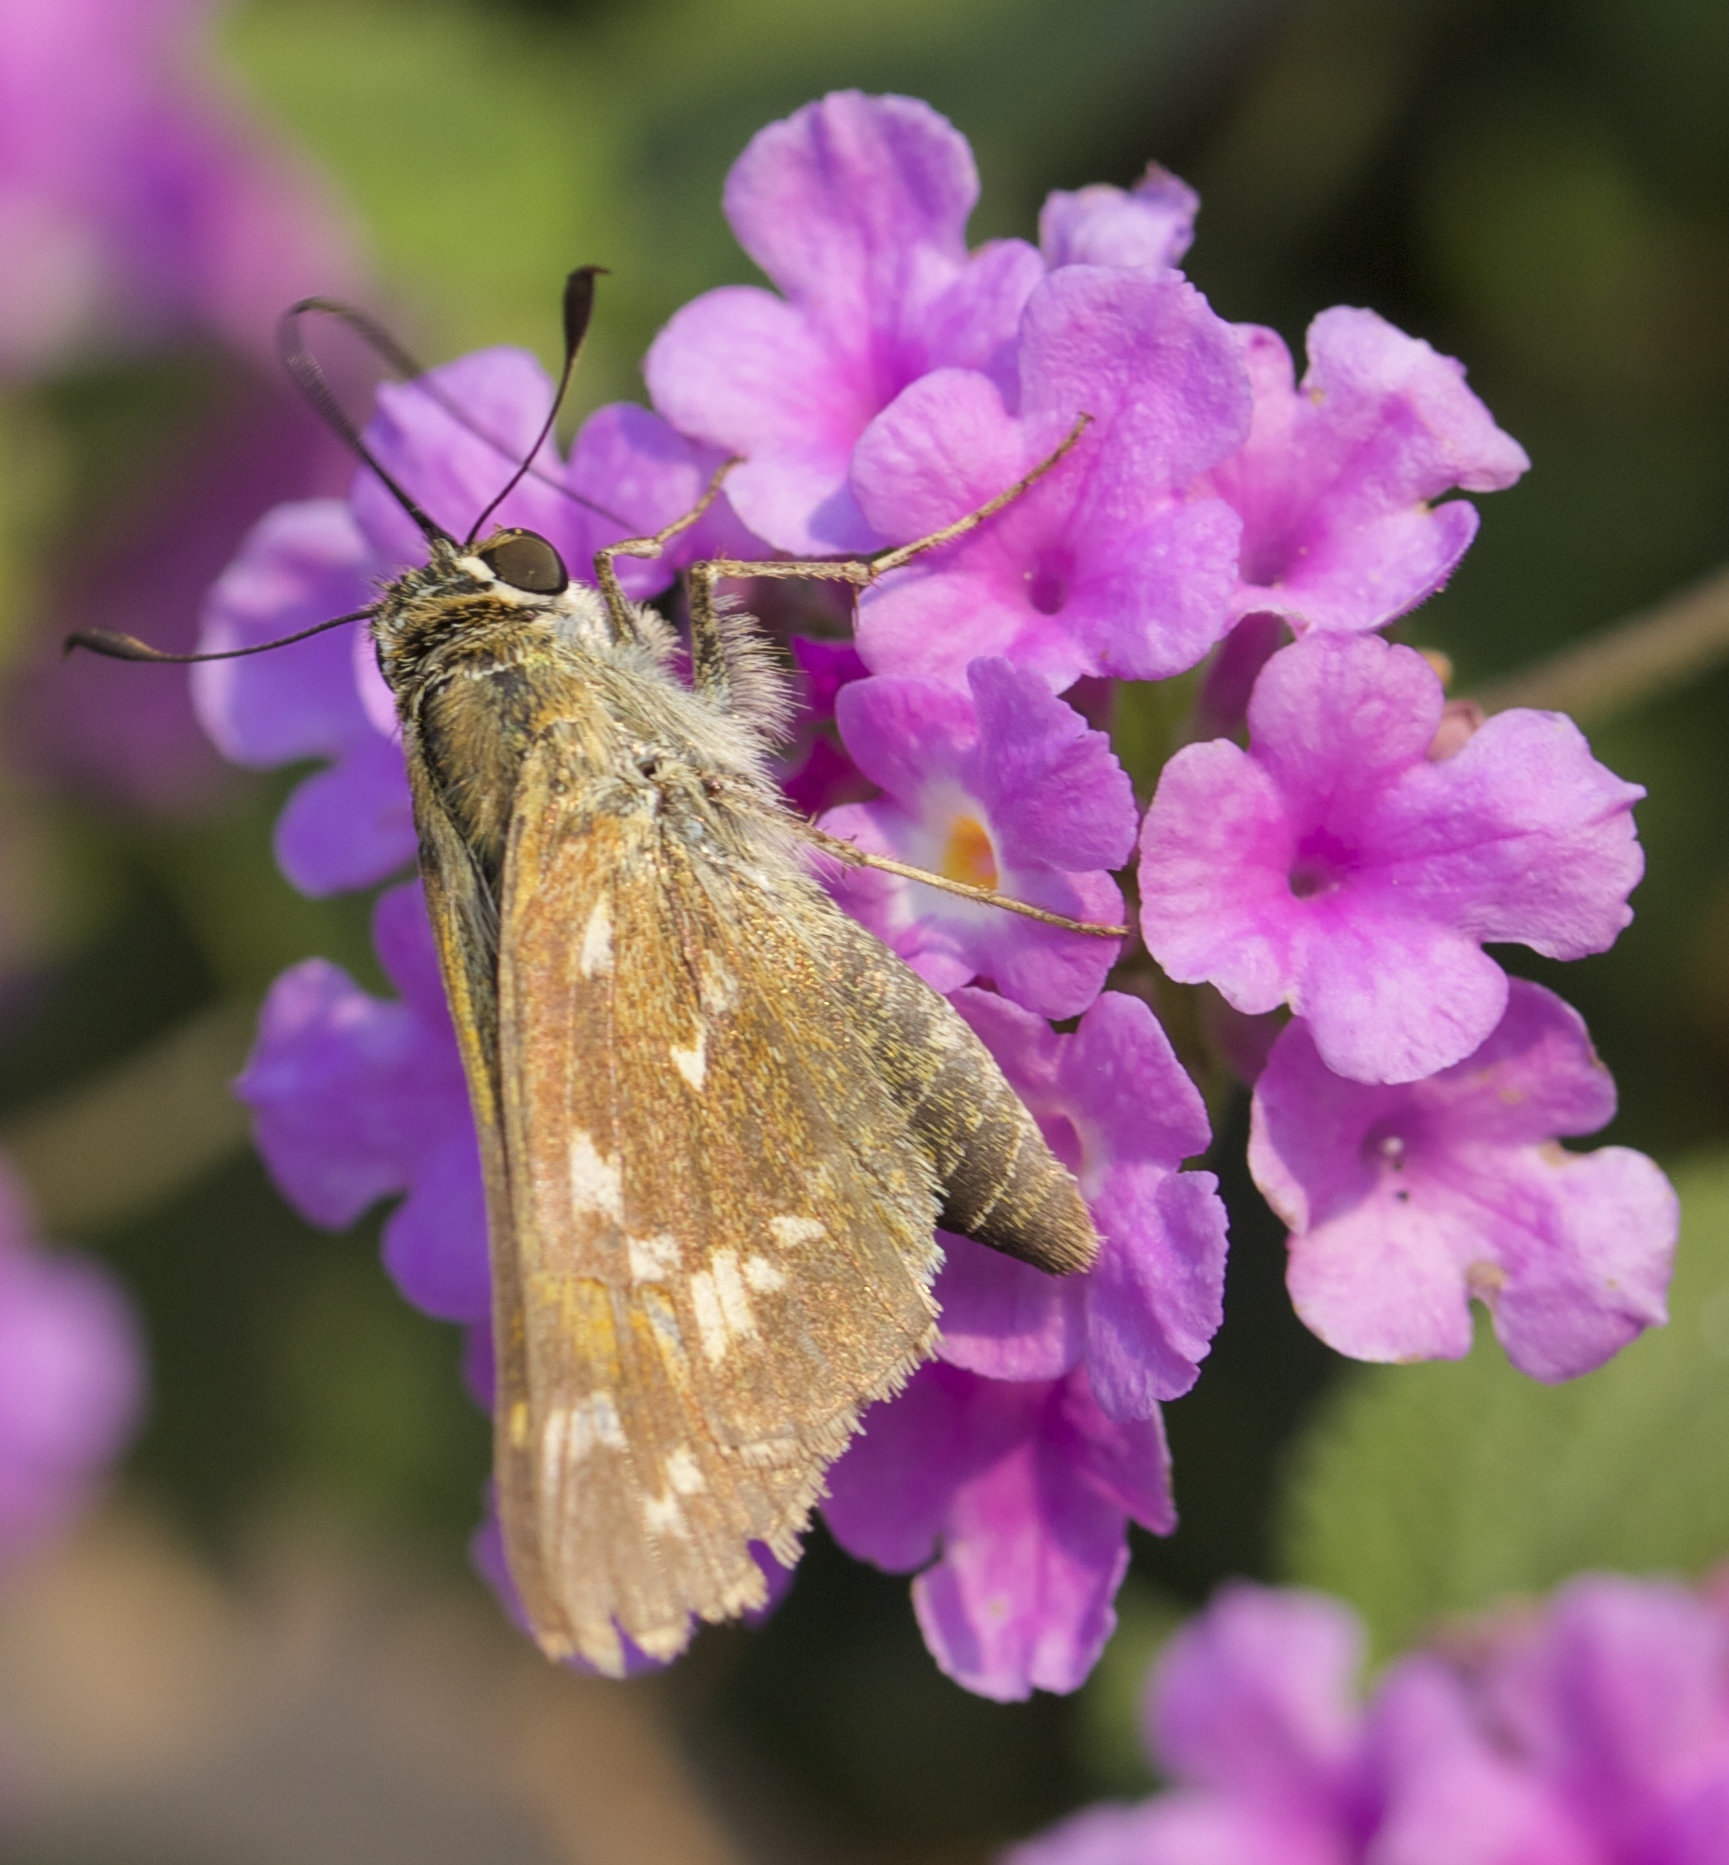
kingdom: Animalia
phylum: Arthropoda
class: Insecta
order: Lepidoptera
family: Hesperiidae
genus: Hesperia
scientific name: Hesperia comma
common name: Common branded skipper
